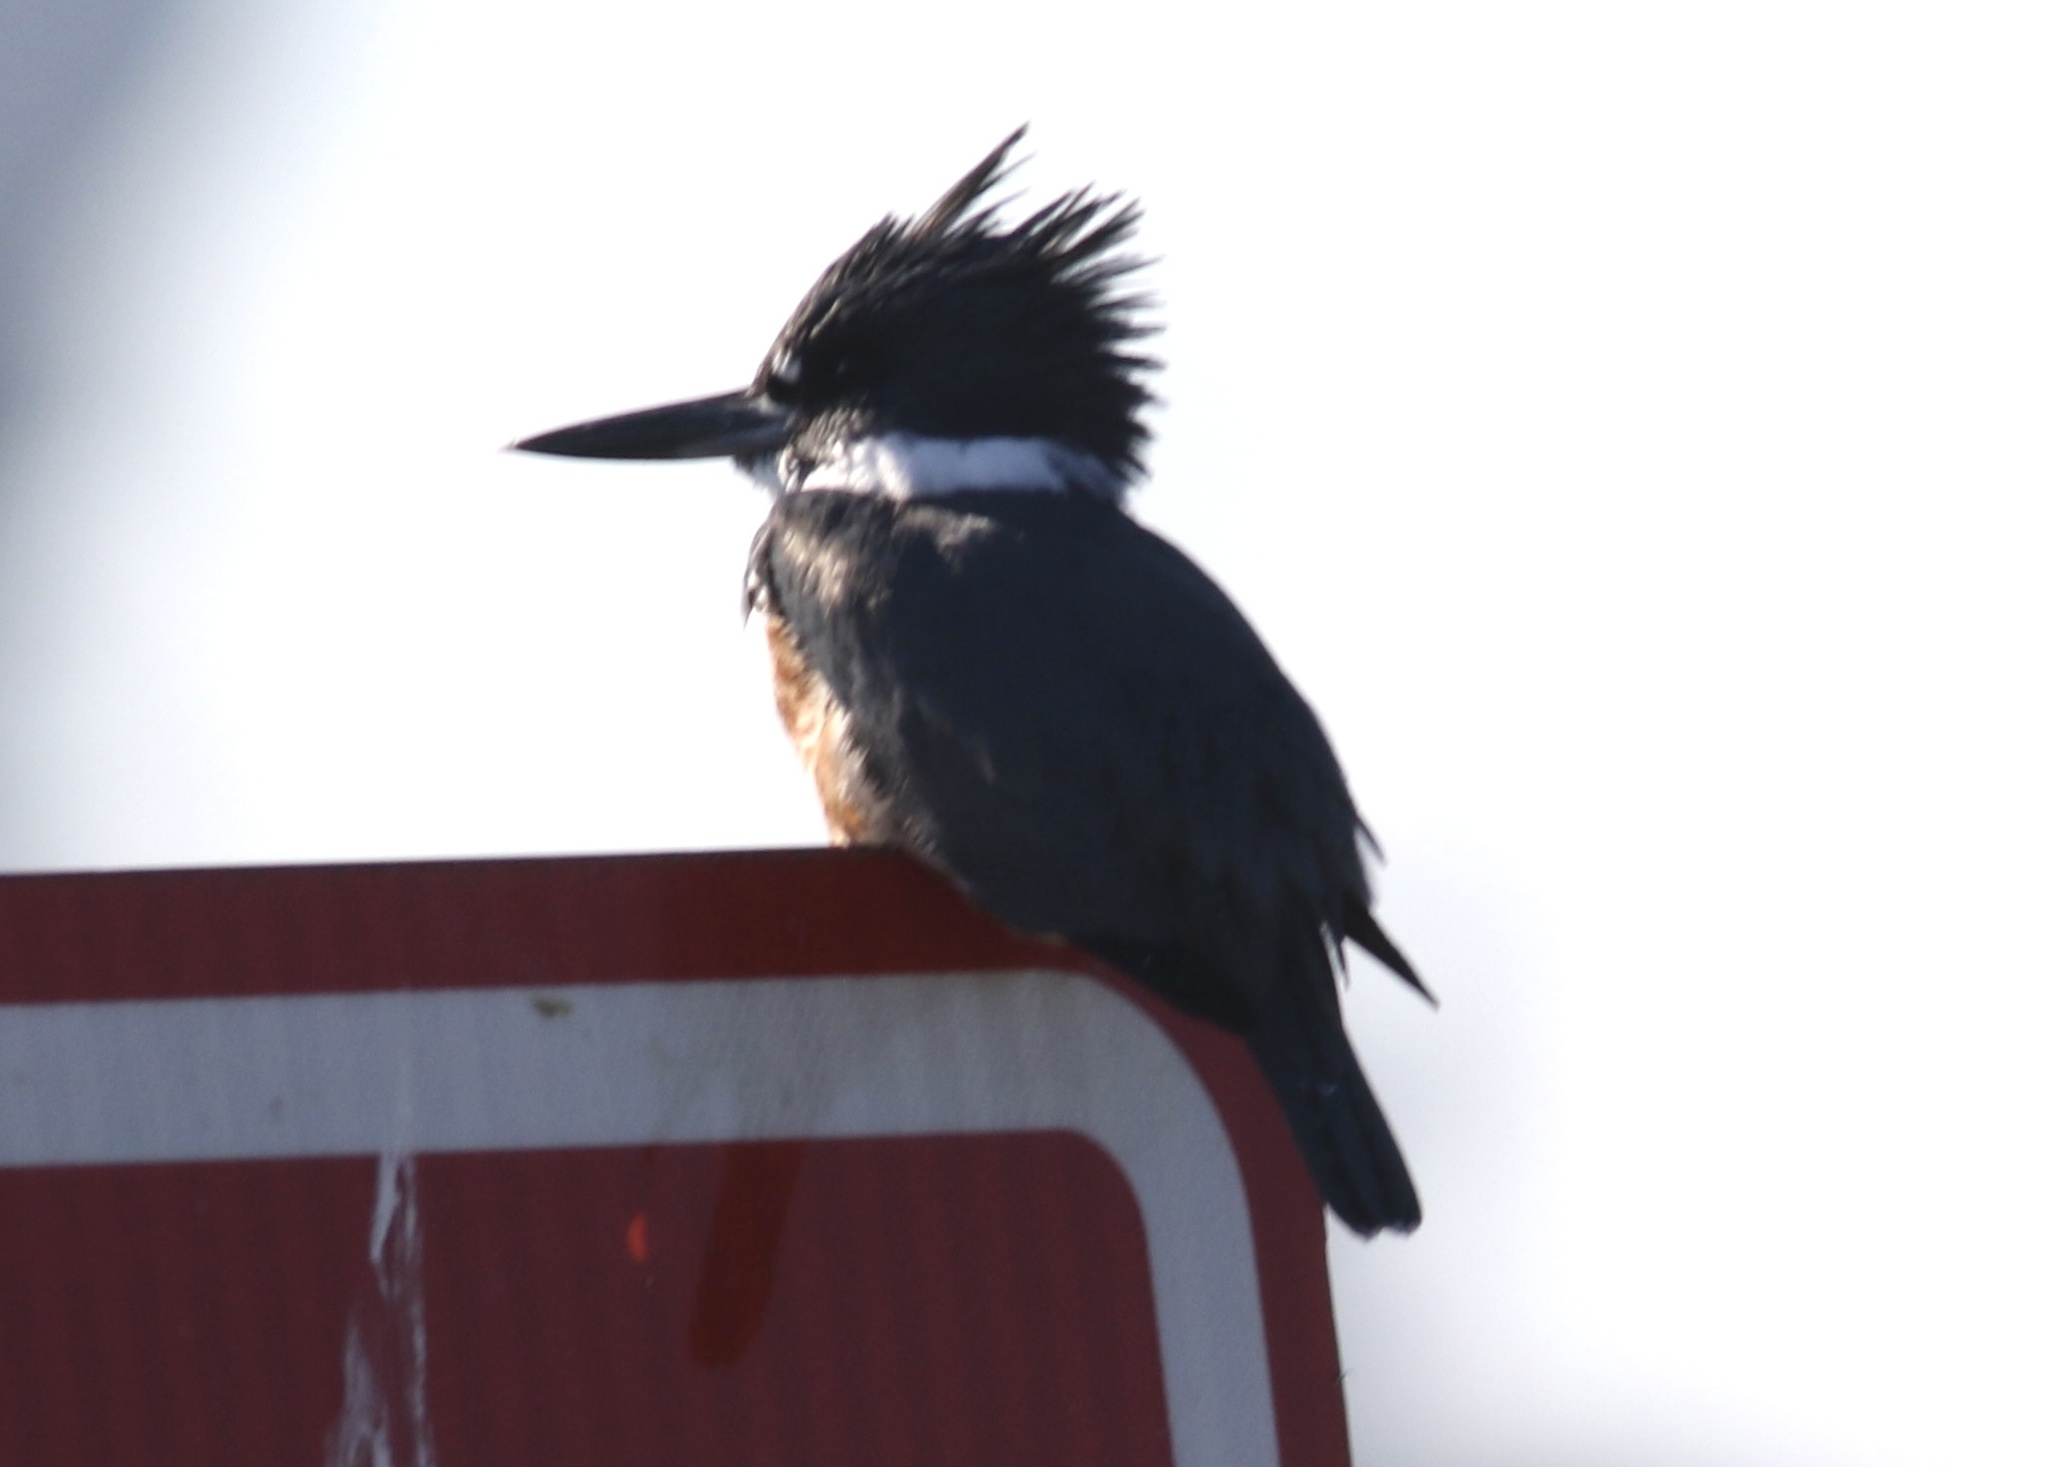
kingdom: Animalia
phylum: Chordata
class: Aves
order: Coraciiformes
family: Alcedinidae
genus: Megaceryle
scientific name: Megaceryle alcyon
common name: Belted kingfisher
